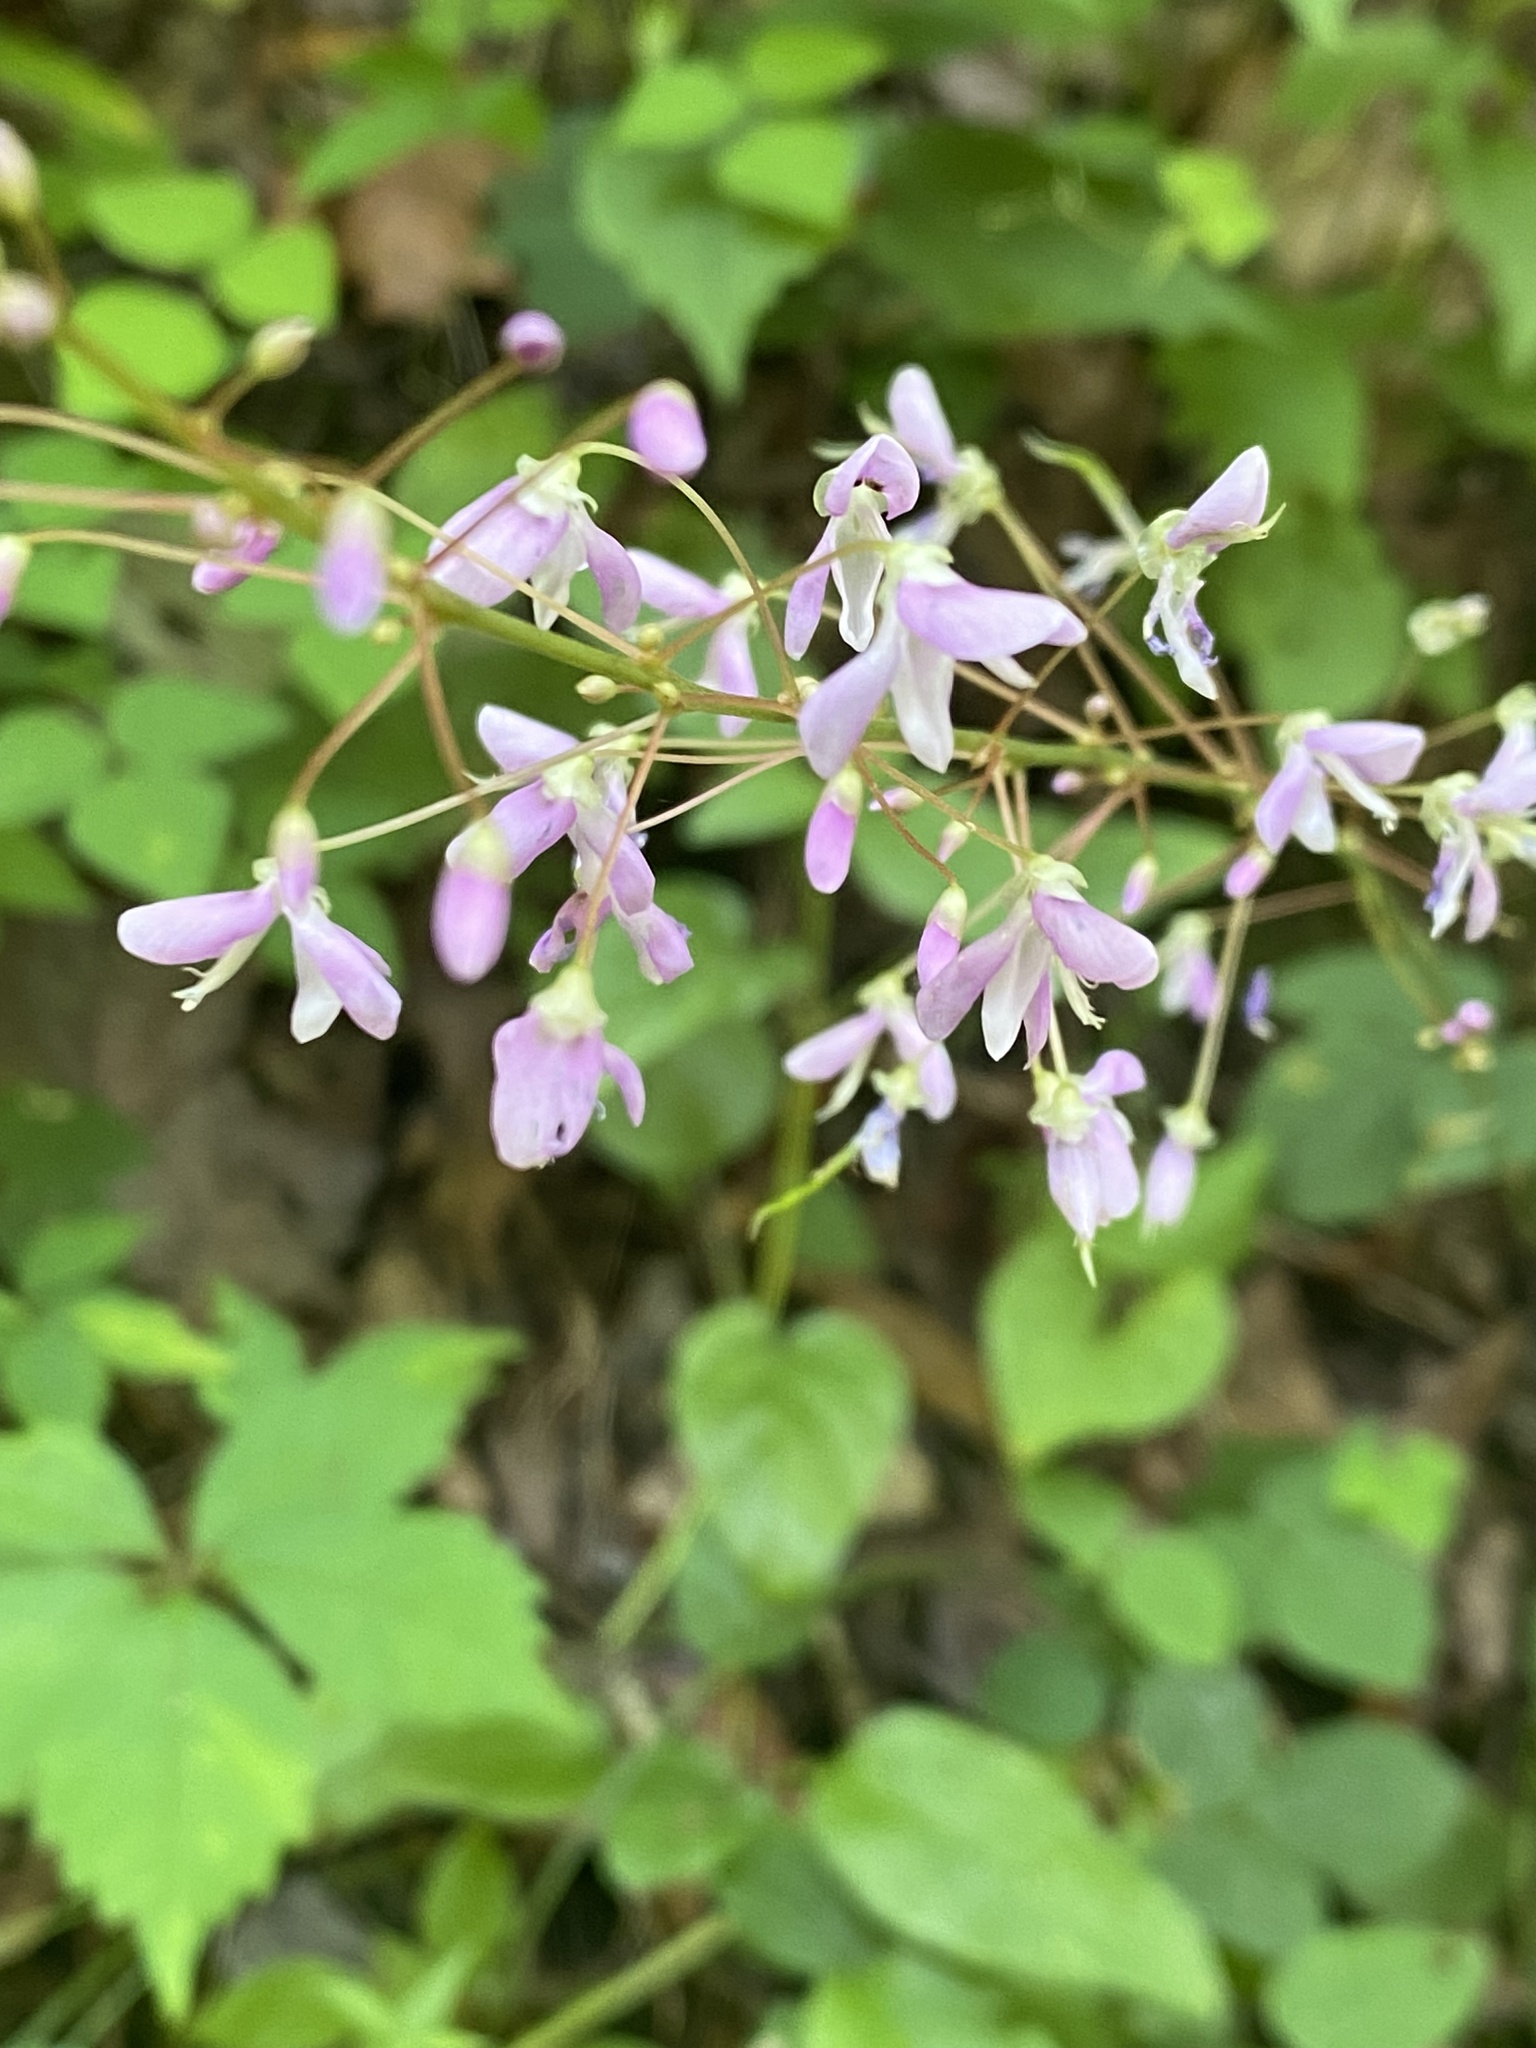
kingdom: Plantae
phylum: Tracheophyta
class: Magnoliopsida
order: Fabales
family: Fabaceae
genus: Hylodesmum
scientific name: Hylodesmum nudiflorum
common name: Bare-stemmed tick-trefoil
